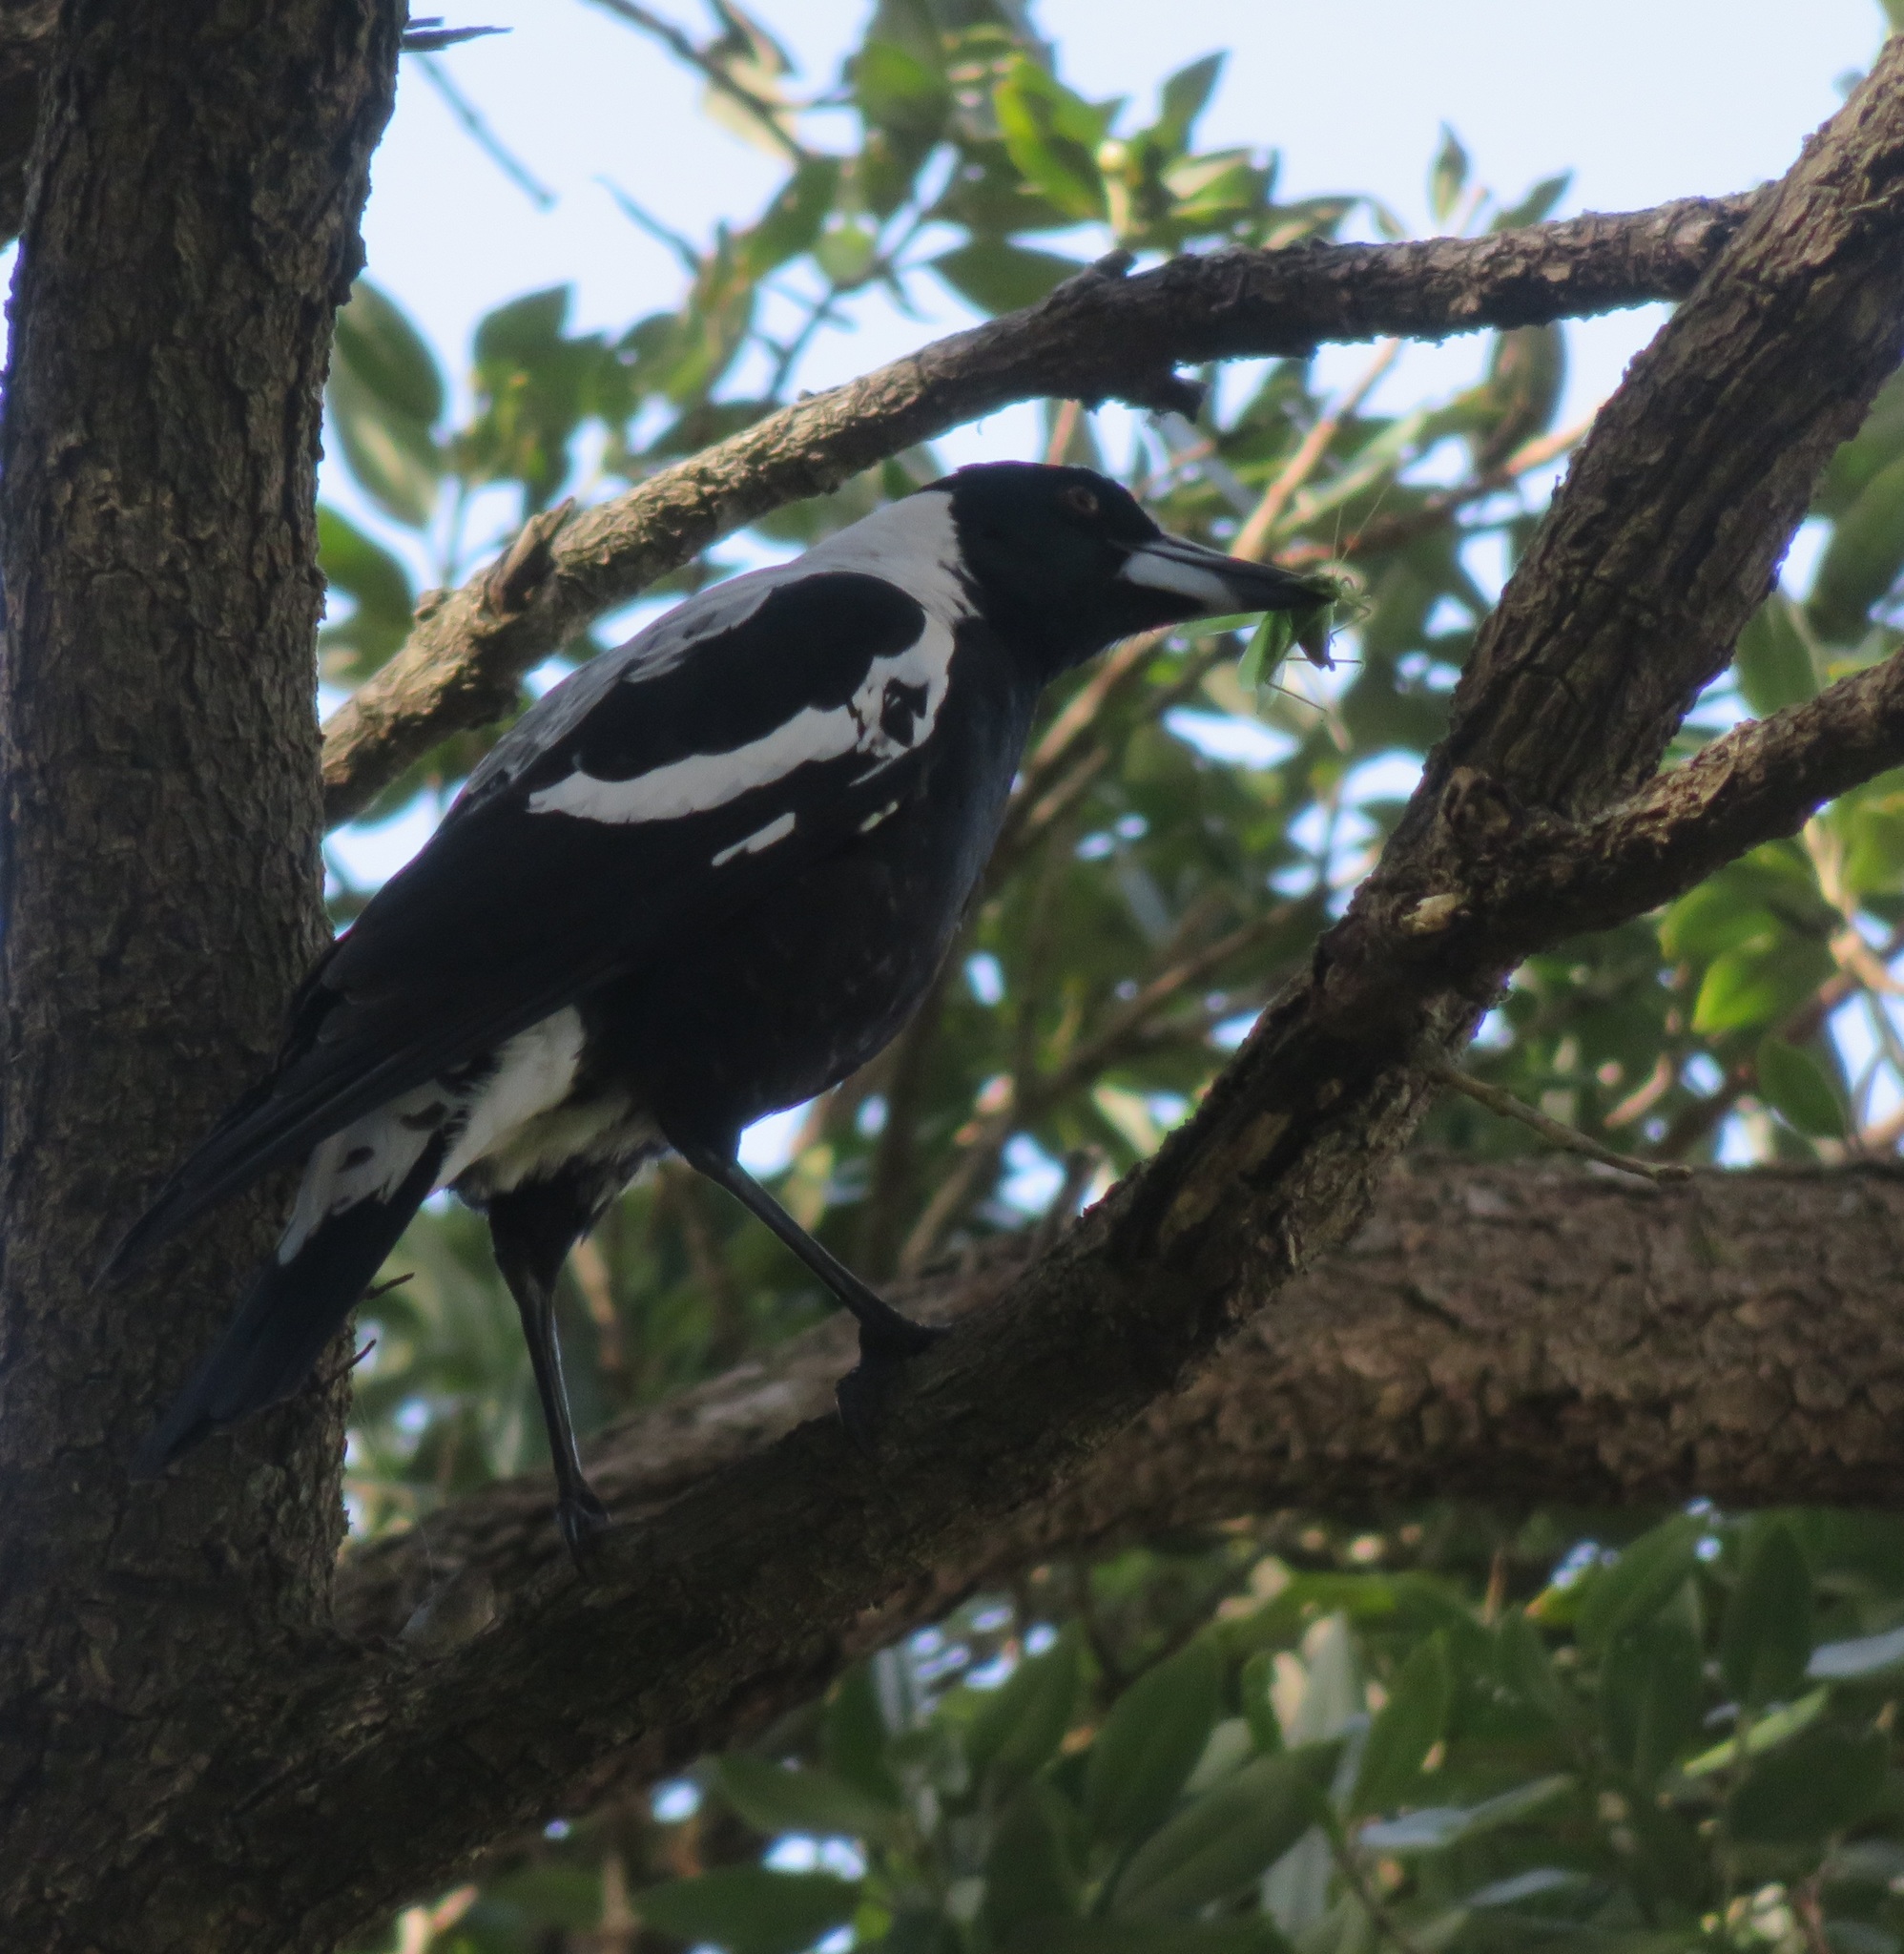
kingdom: Animalia
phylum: Chordata
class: Aves
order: Passeriformes
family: Cracticidae
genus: Gymnorhina
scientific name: Gymnorhina tibicen
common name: Australian magpie
